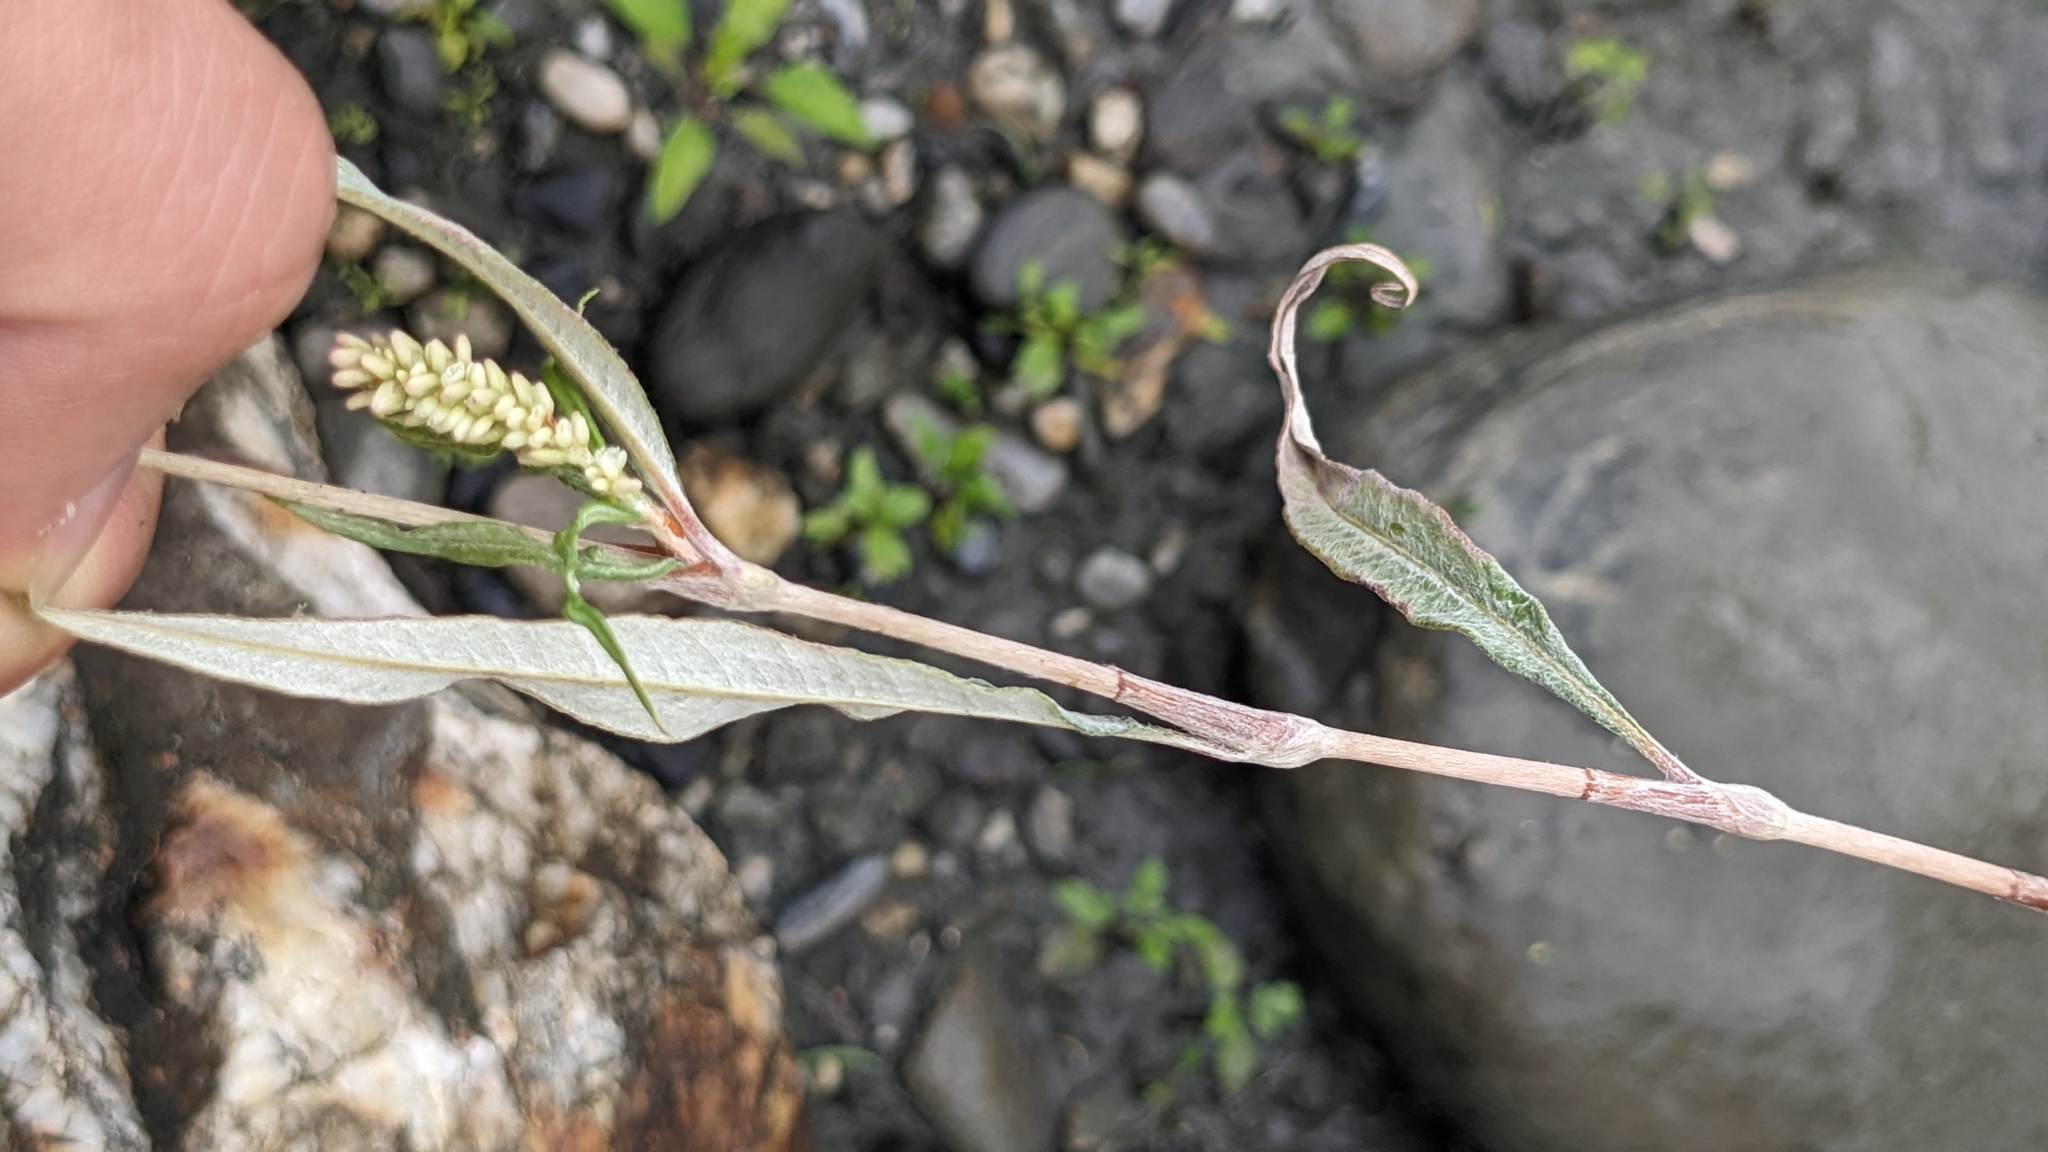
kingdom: Plantae
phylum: Tracheophyta
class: Magnoliopsida
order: Caryophyllales
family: Polygonaceae
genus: Persicaria
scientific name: Persicaria lanata
